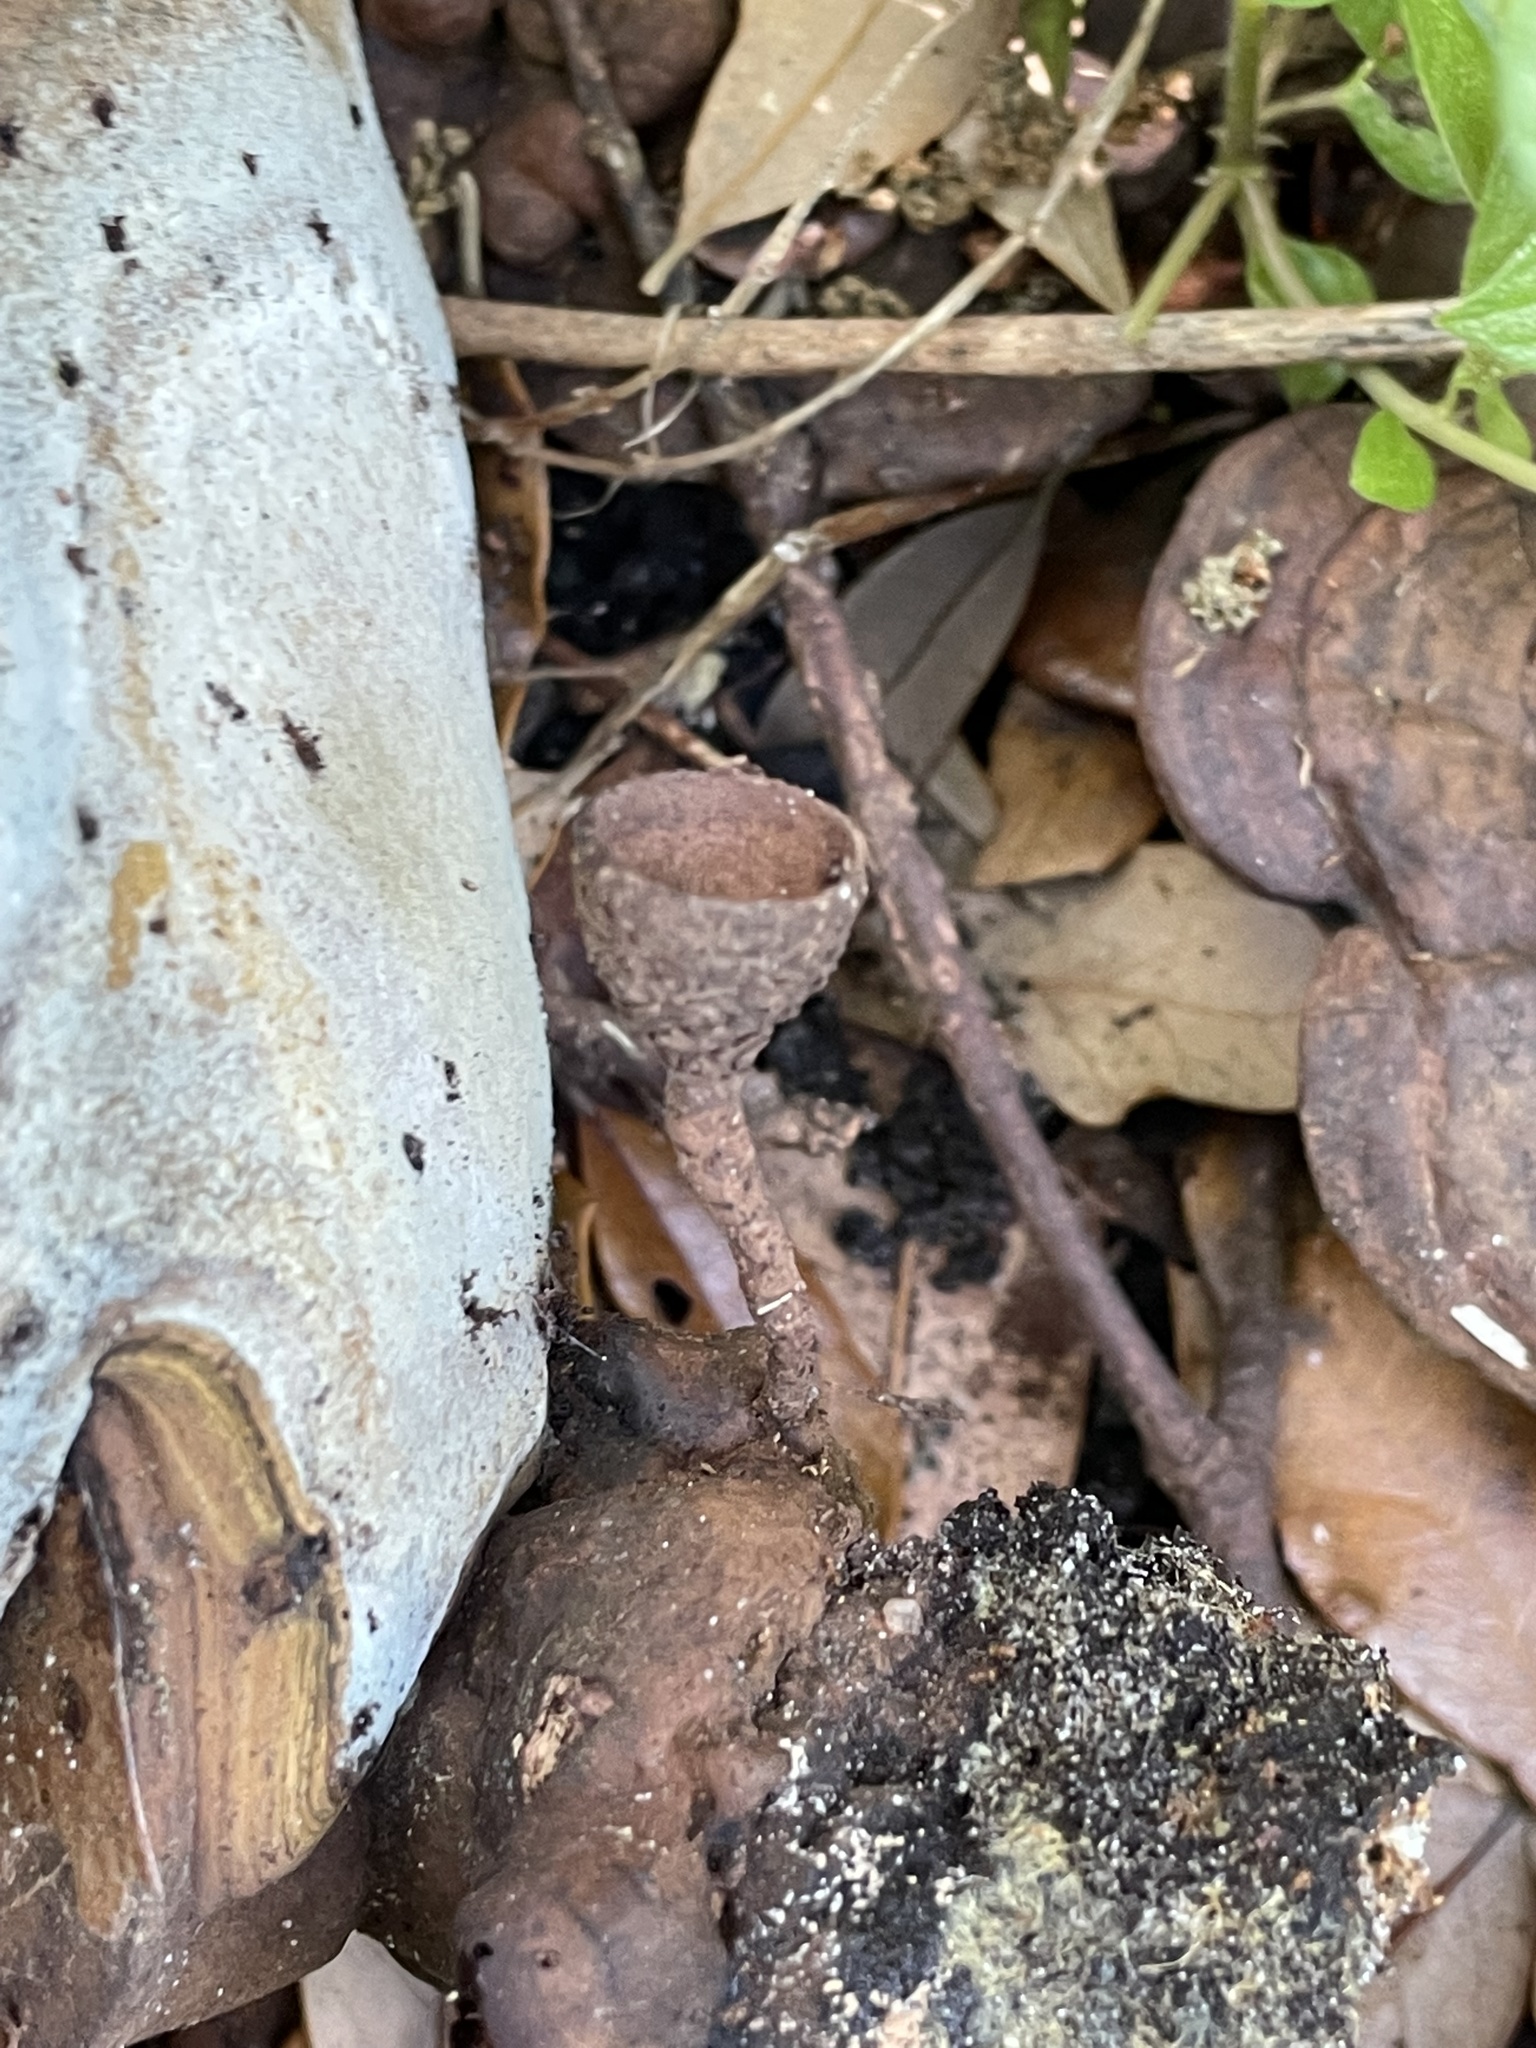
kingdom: Plantae
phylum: Tracheophyta
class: Magnoliopsida
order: Fagales
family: Fagaceae
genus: Quercus
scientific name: Quercus virginiana
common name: Southern live oak
